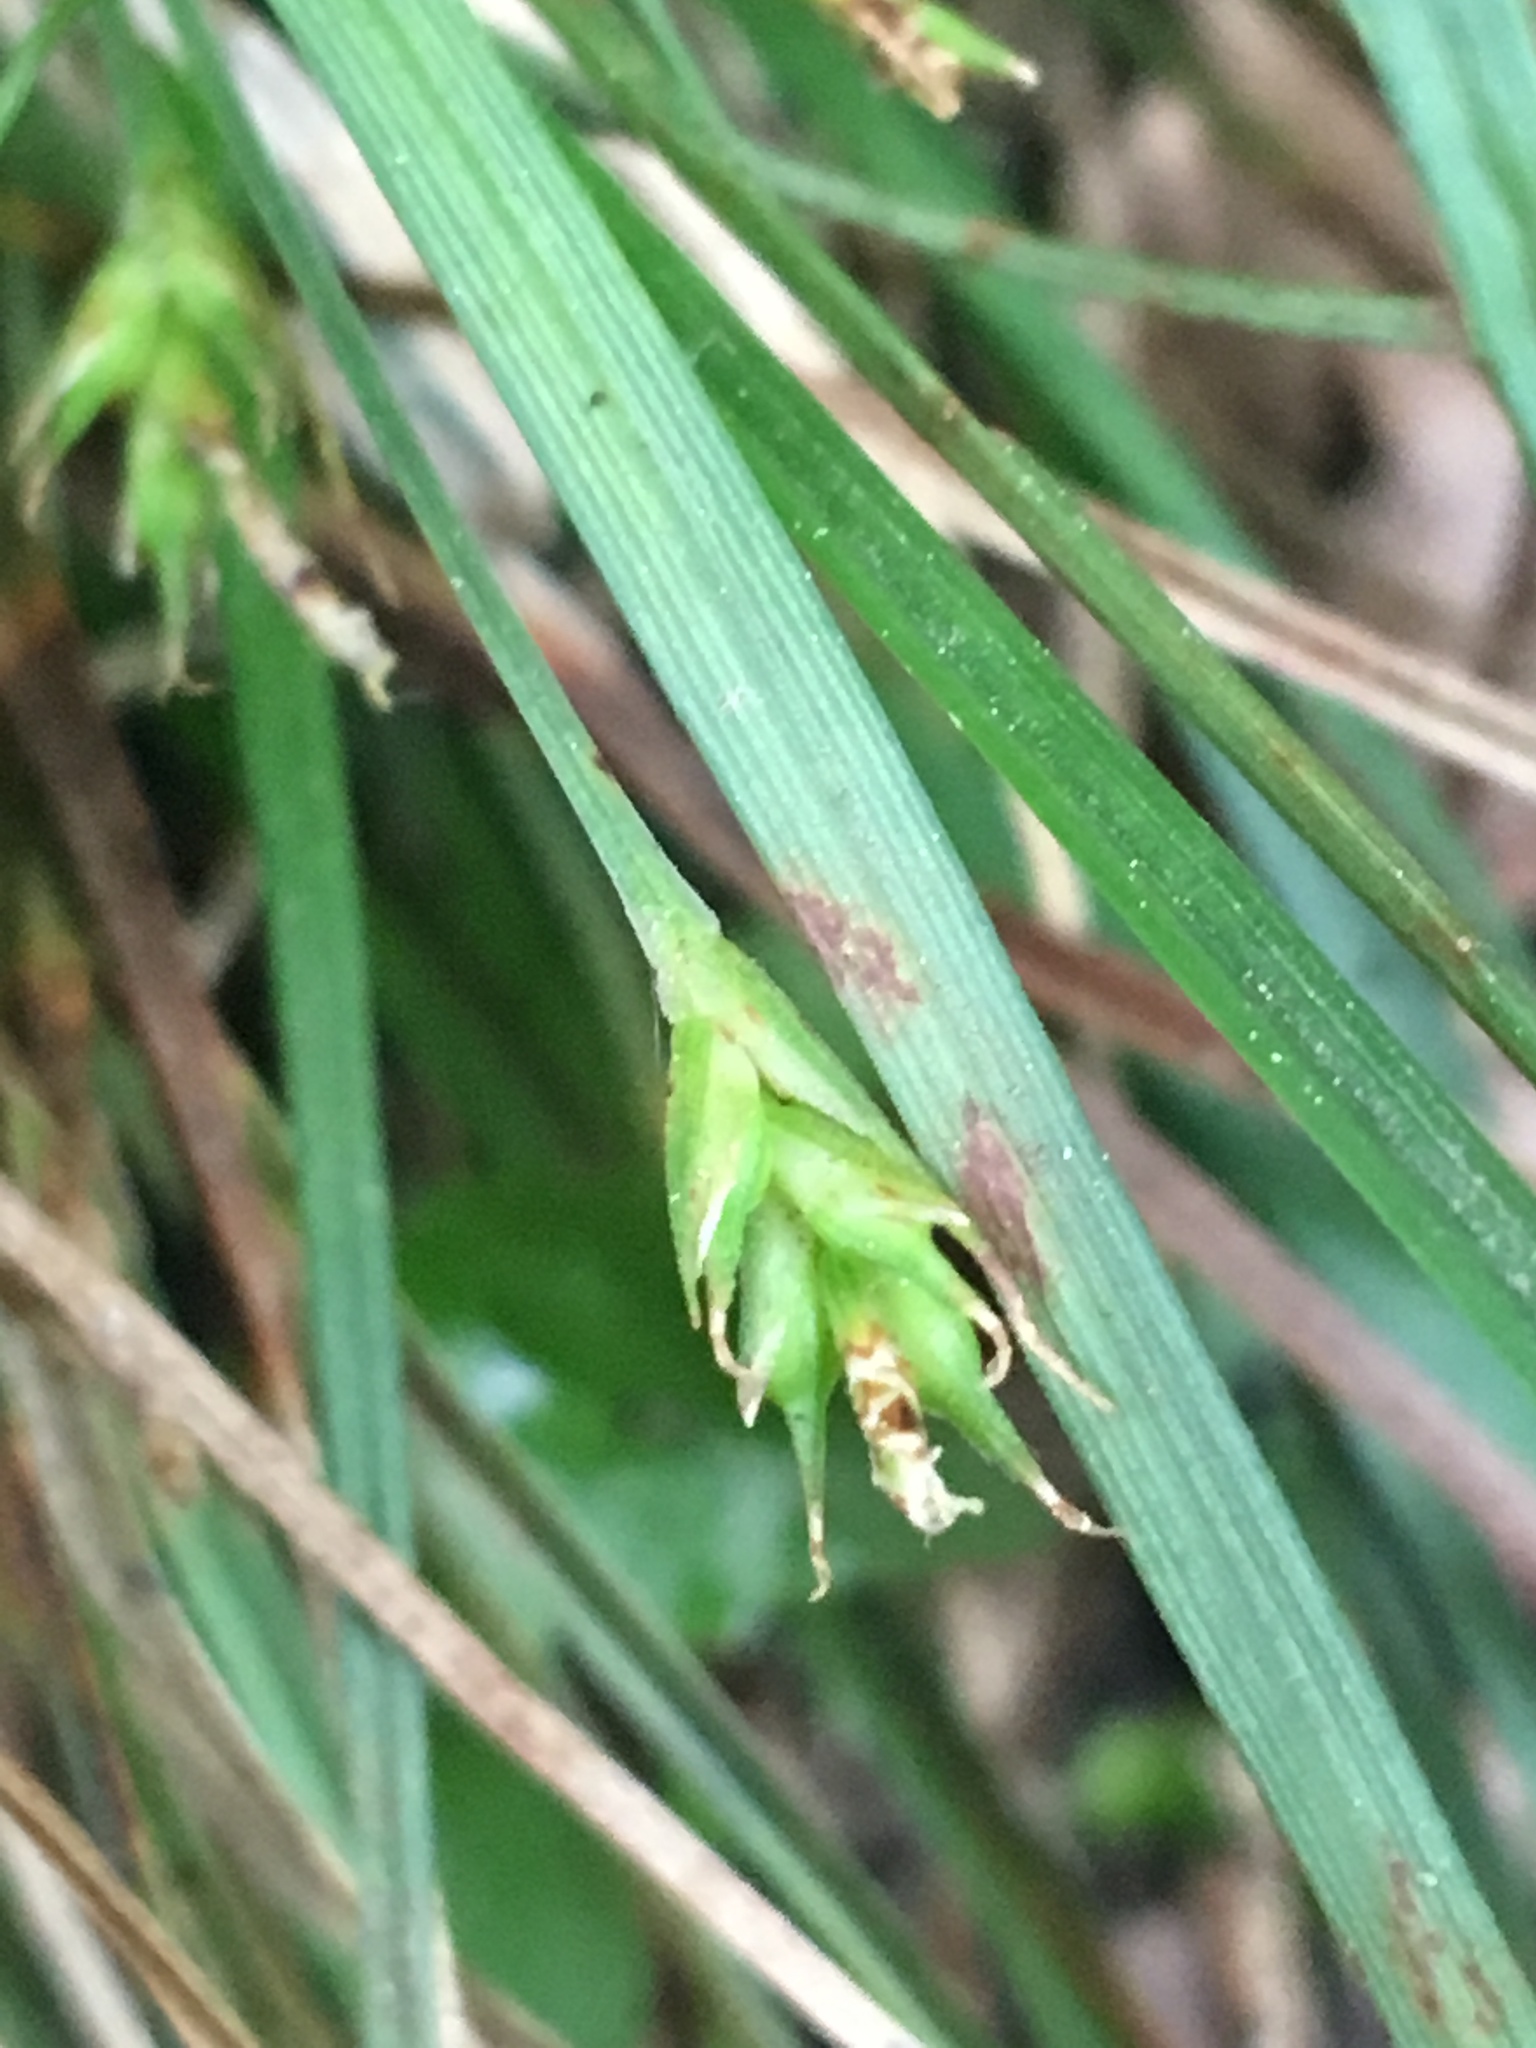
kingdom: Plantae
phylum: Tracheophyta
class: Liliopsida
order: Poales
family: Cyperaceae
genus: Carex
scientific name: Carex willdenowii
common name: Willdenow's sedge
